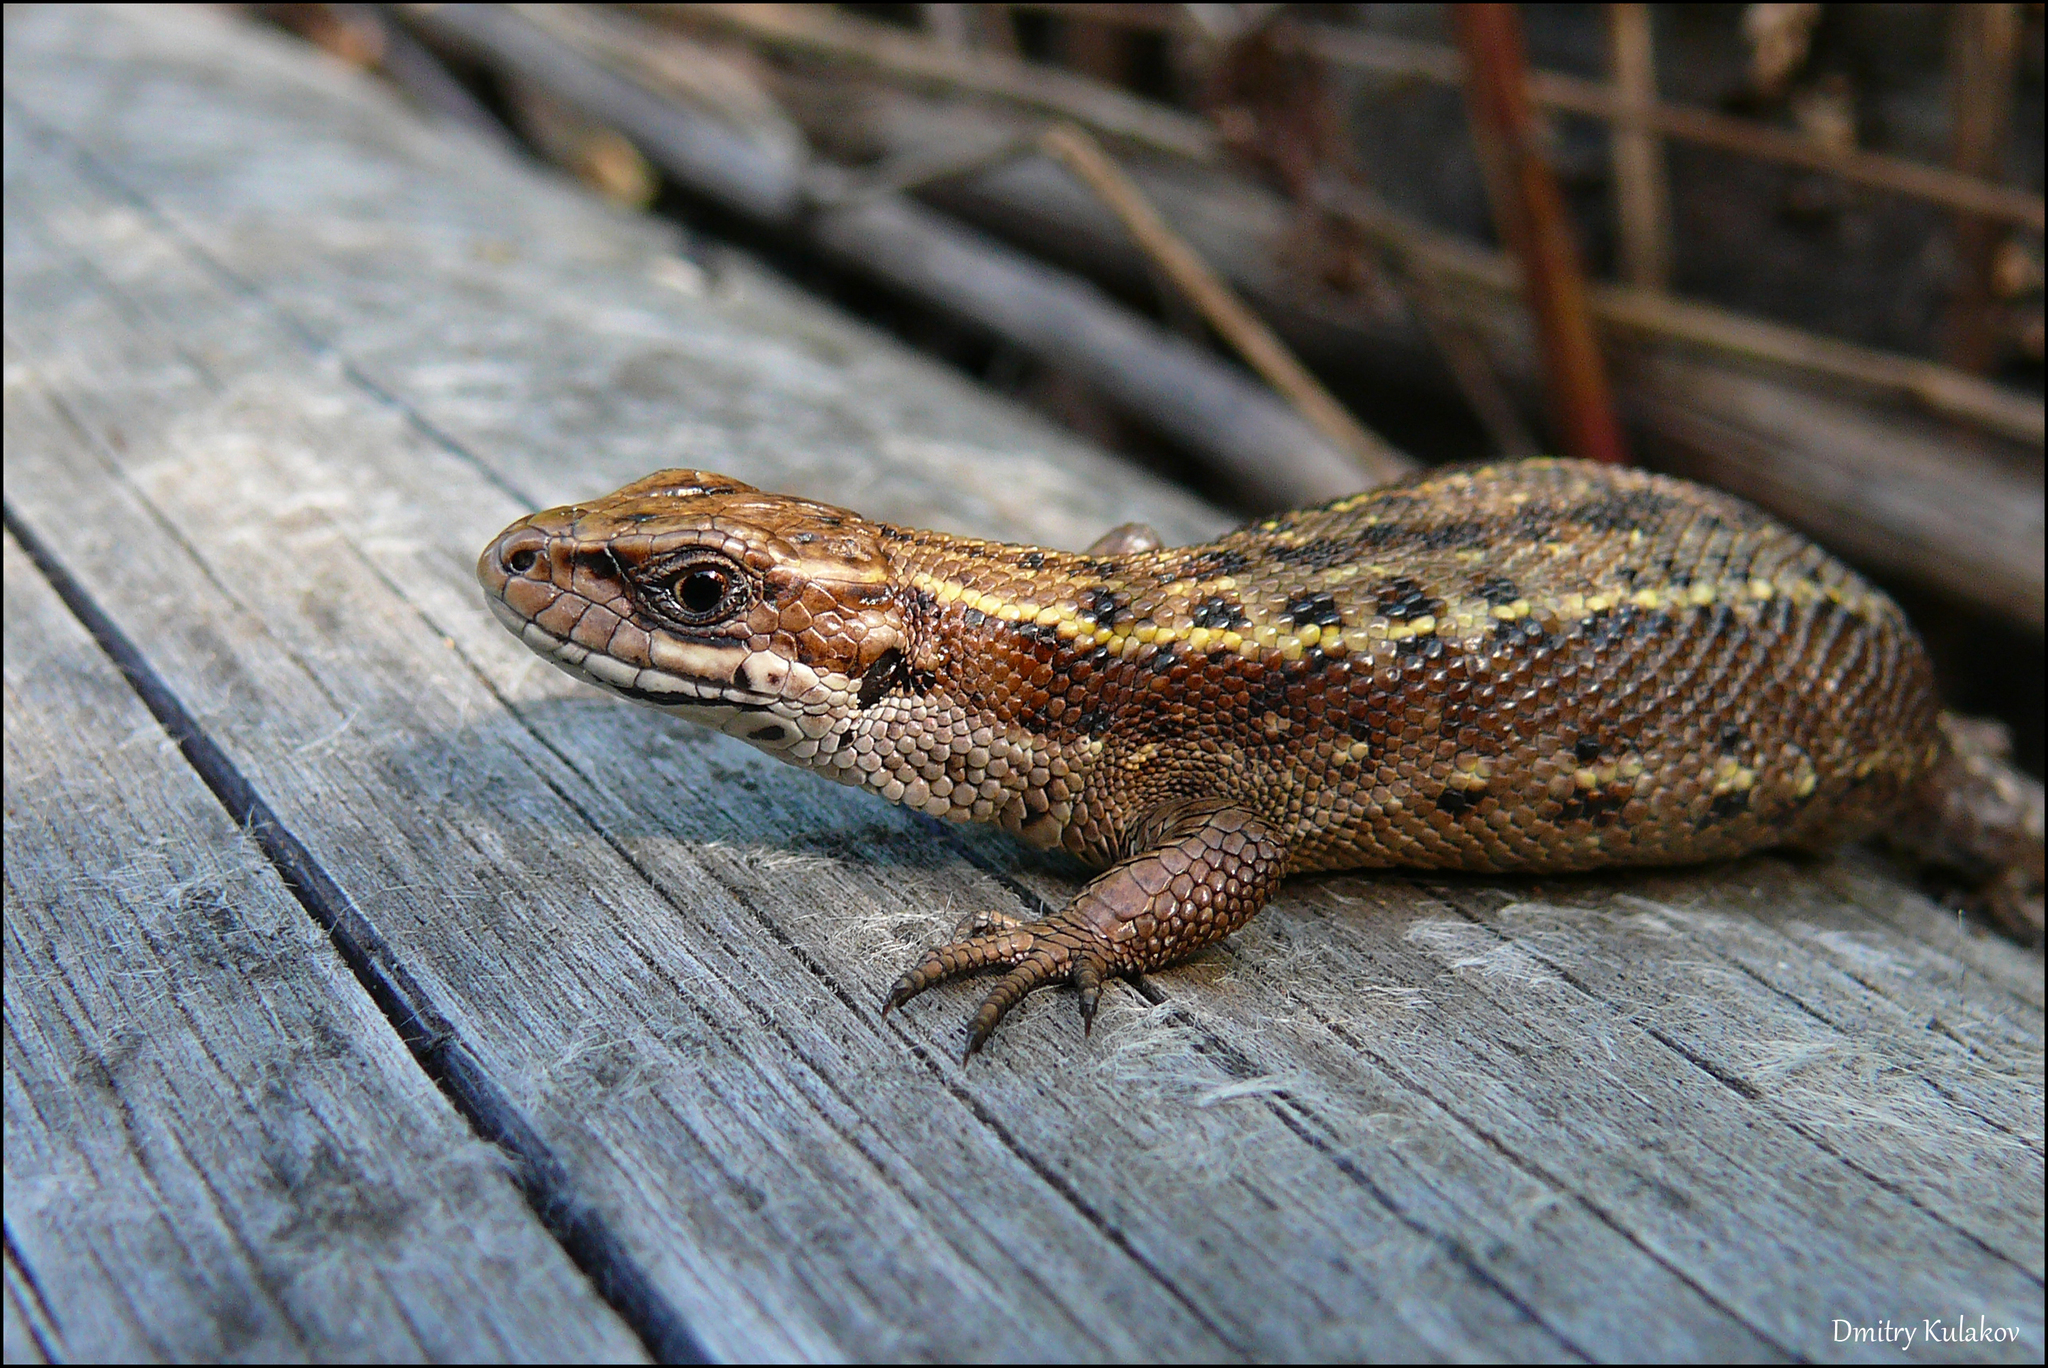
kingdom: Animalia
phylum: Chordata
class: Squamata
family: Lacertidae
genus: Zootoca
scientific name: Zootoca vivipara
